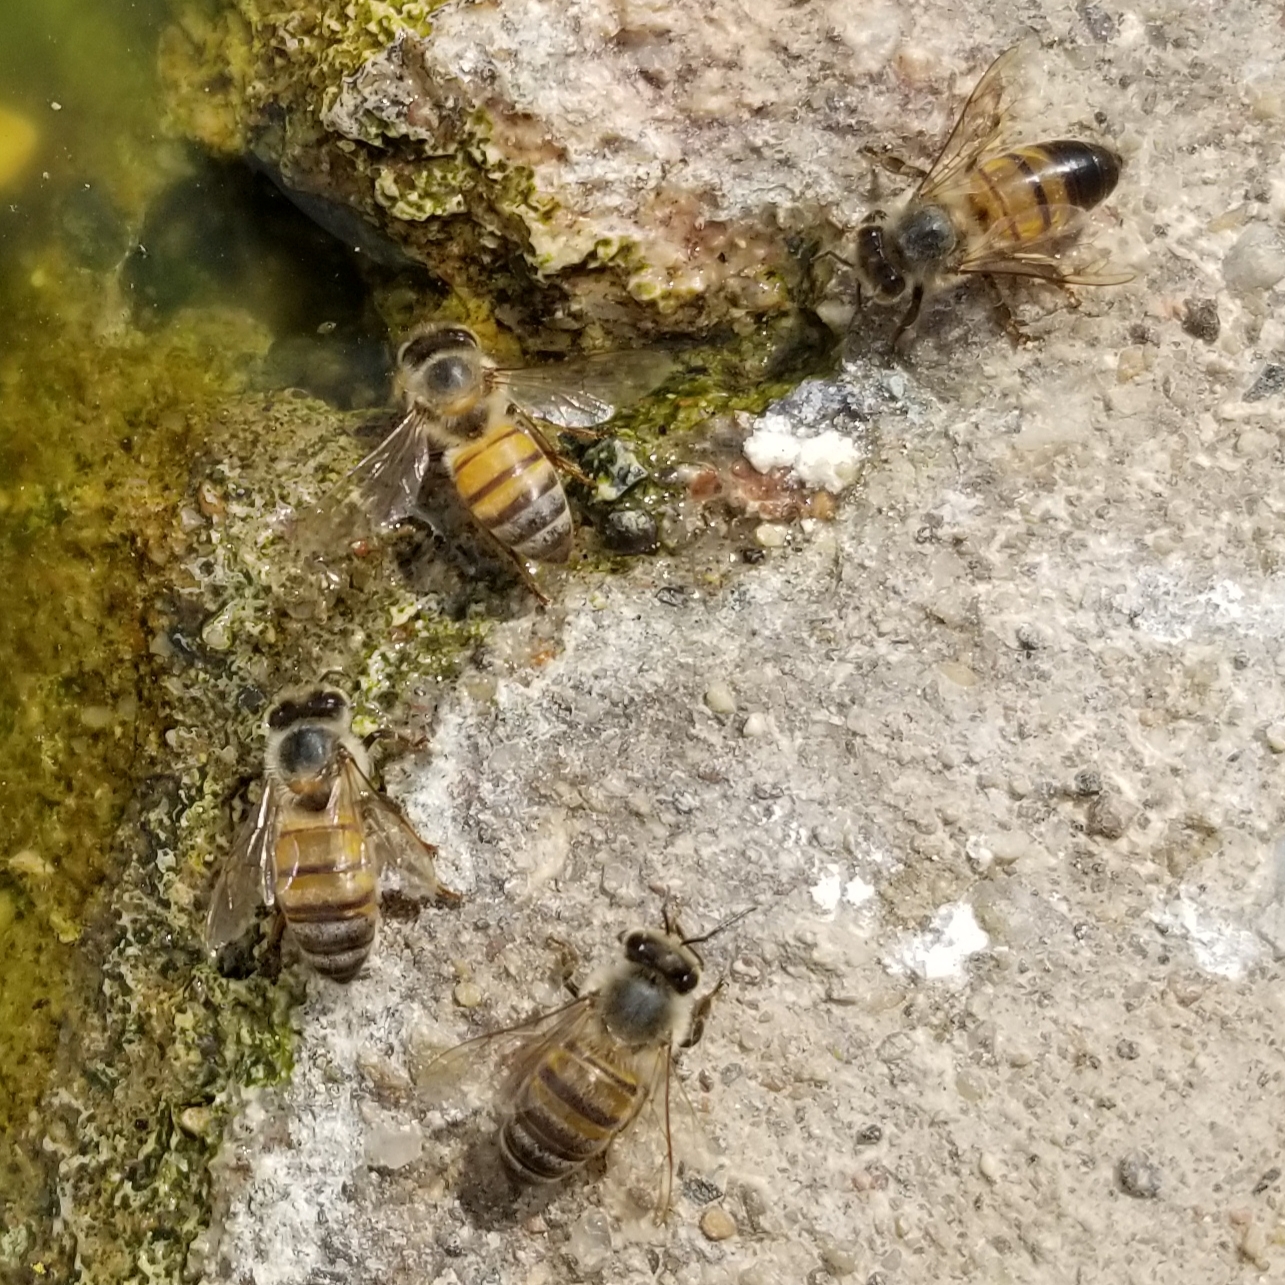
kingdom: Animalia
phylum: Arthropoda
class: Insecta
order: Hymenoptera
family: Apidae
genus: Apis
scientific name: Apis mellifera
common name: Honey bee
